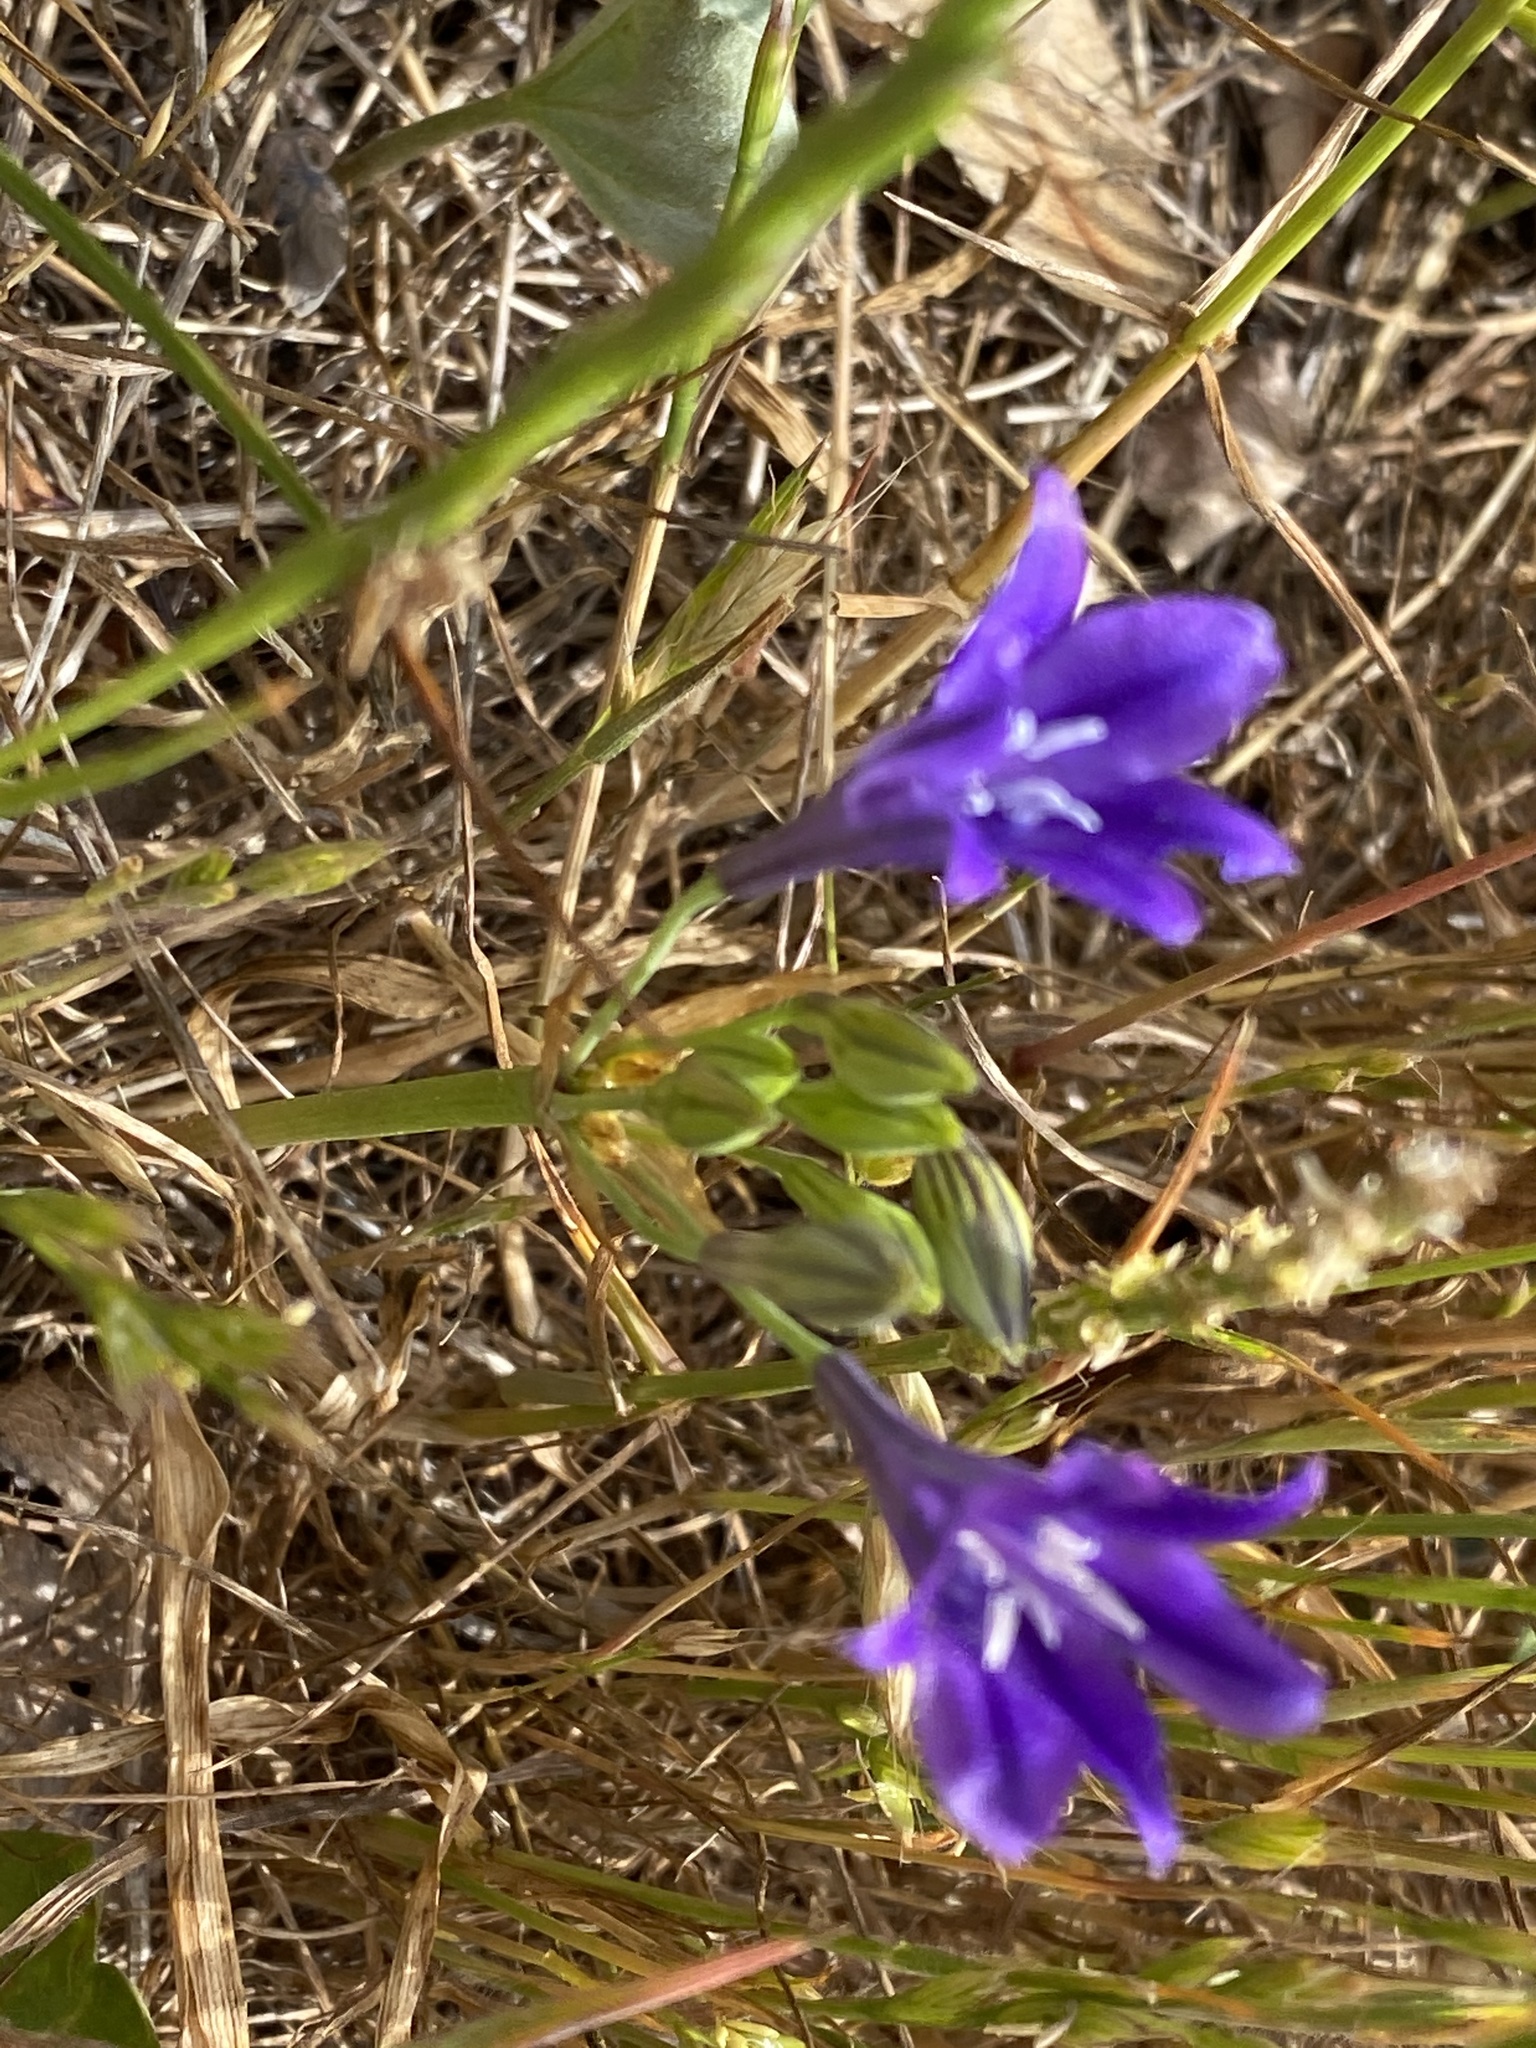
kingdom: Plantae
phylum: Tracheophyta
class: Liliopsida
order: Asparagales
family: Asparagaceae
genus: Triteleia
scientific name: Triteleia laxa
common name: Triplet-lily
